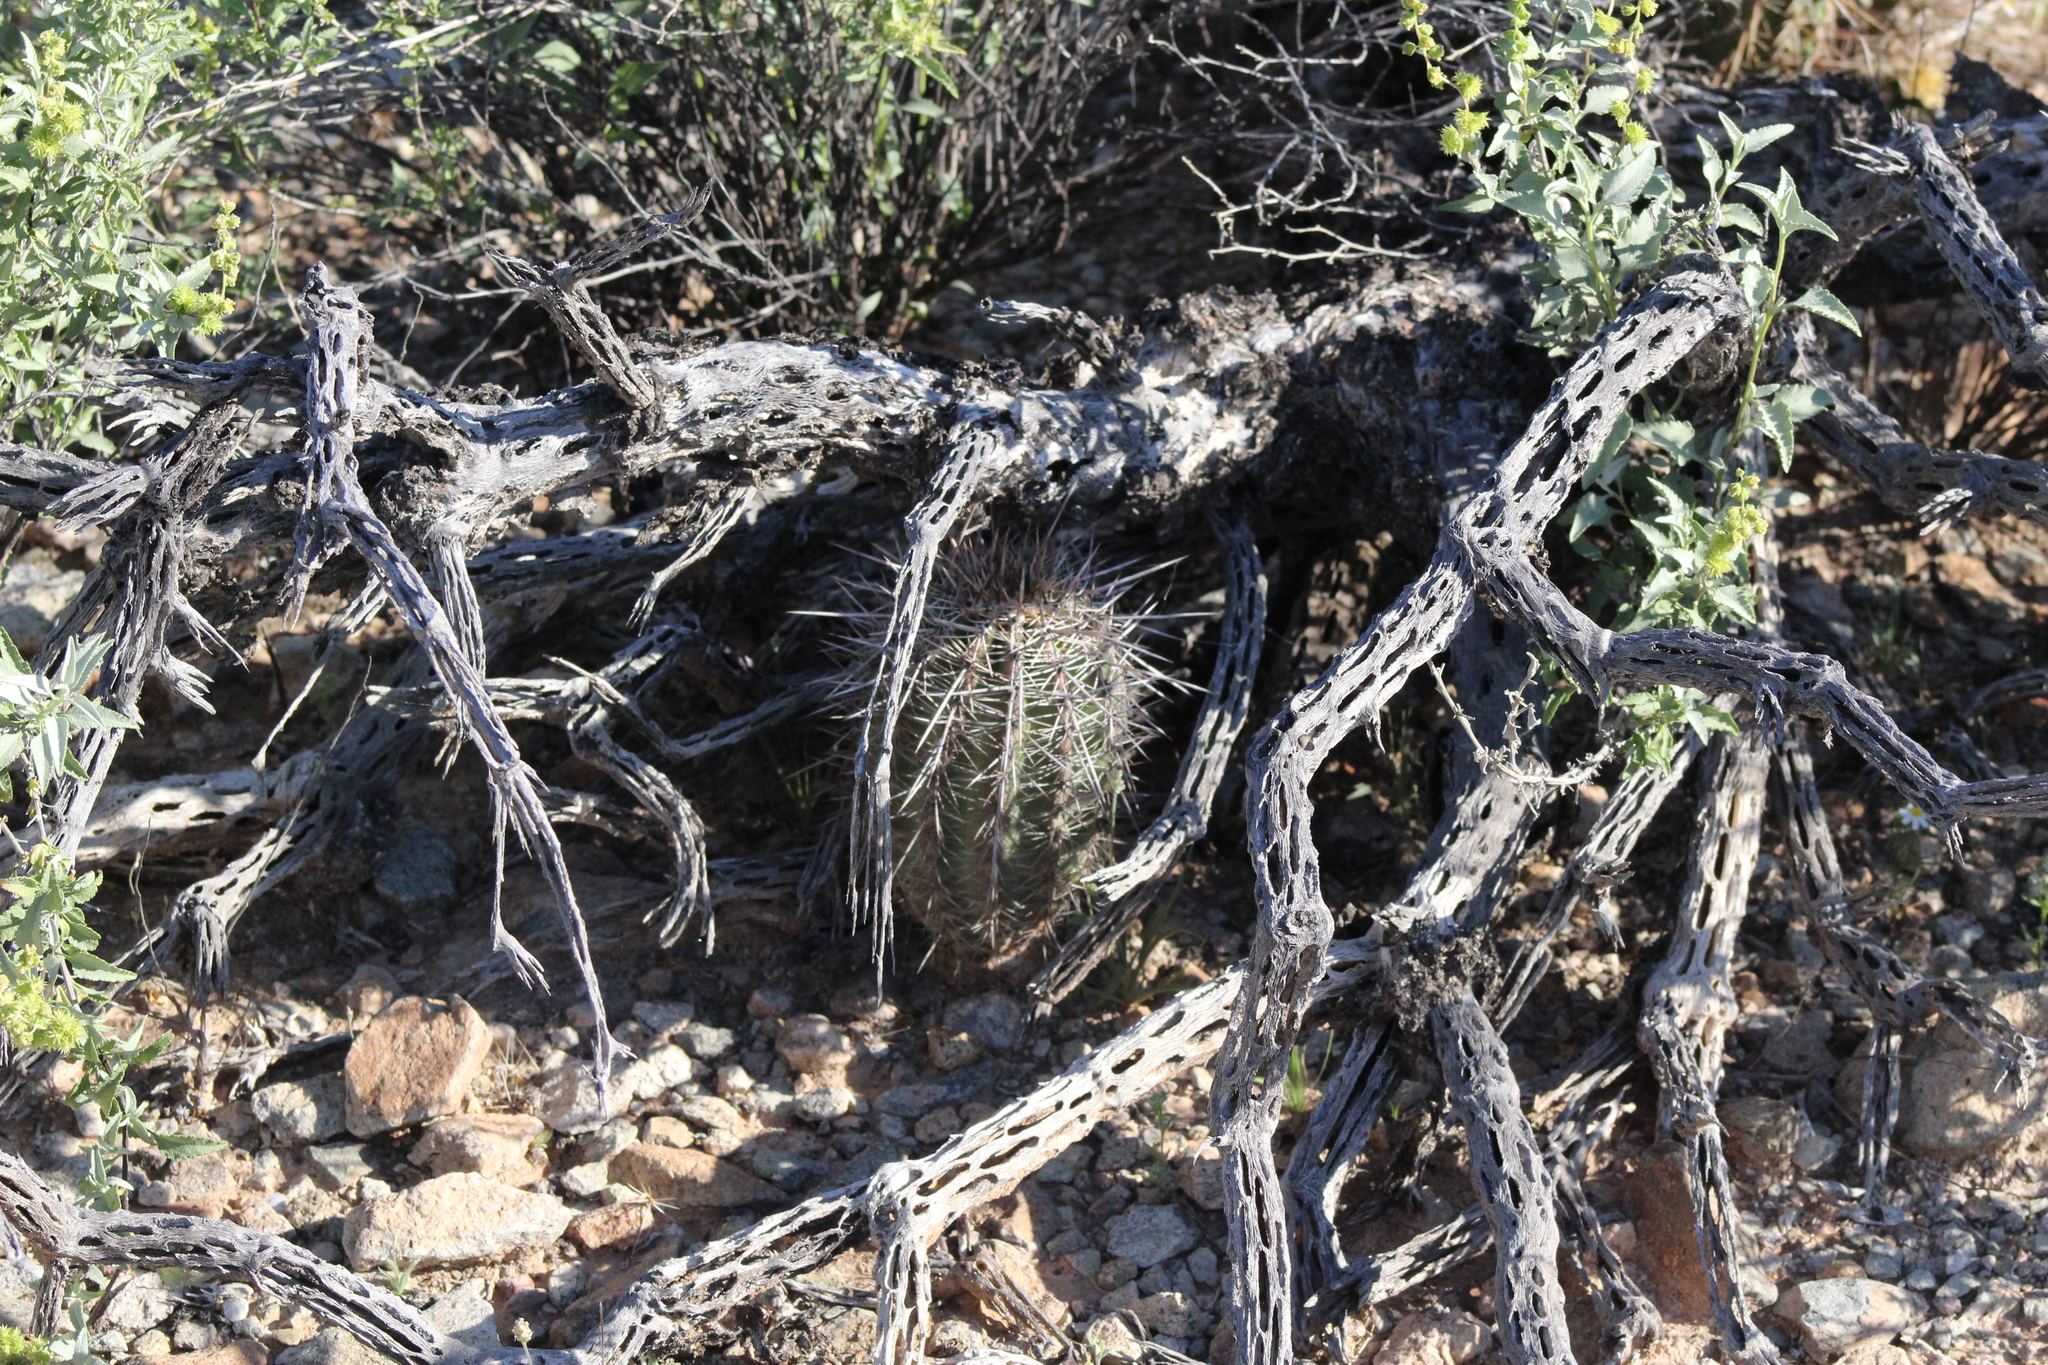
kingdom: Plantae
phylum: Tracheophyta
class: Magnoliopsida
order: Caryophyllales
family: Cactaceae
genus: Carnegiea
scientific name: Carnegiea gigantea
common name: Saguaro
